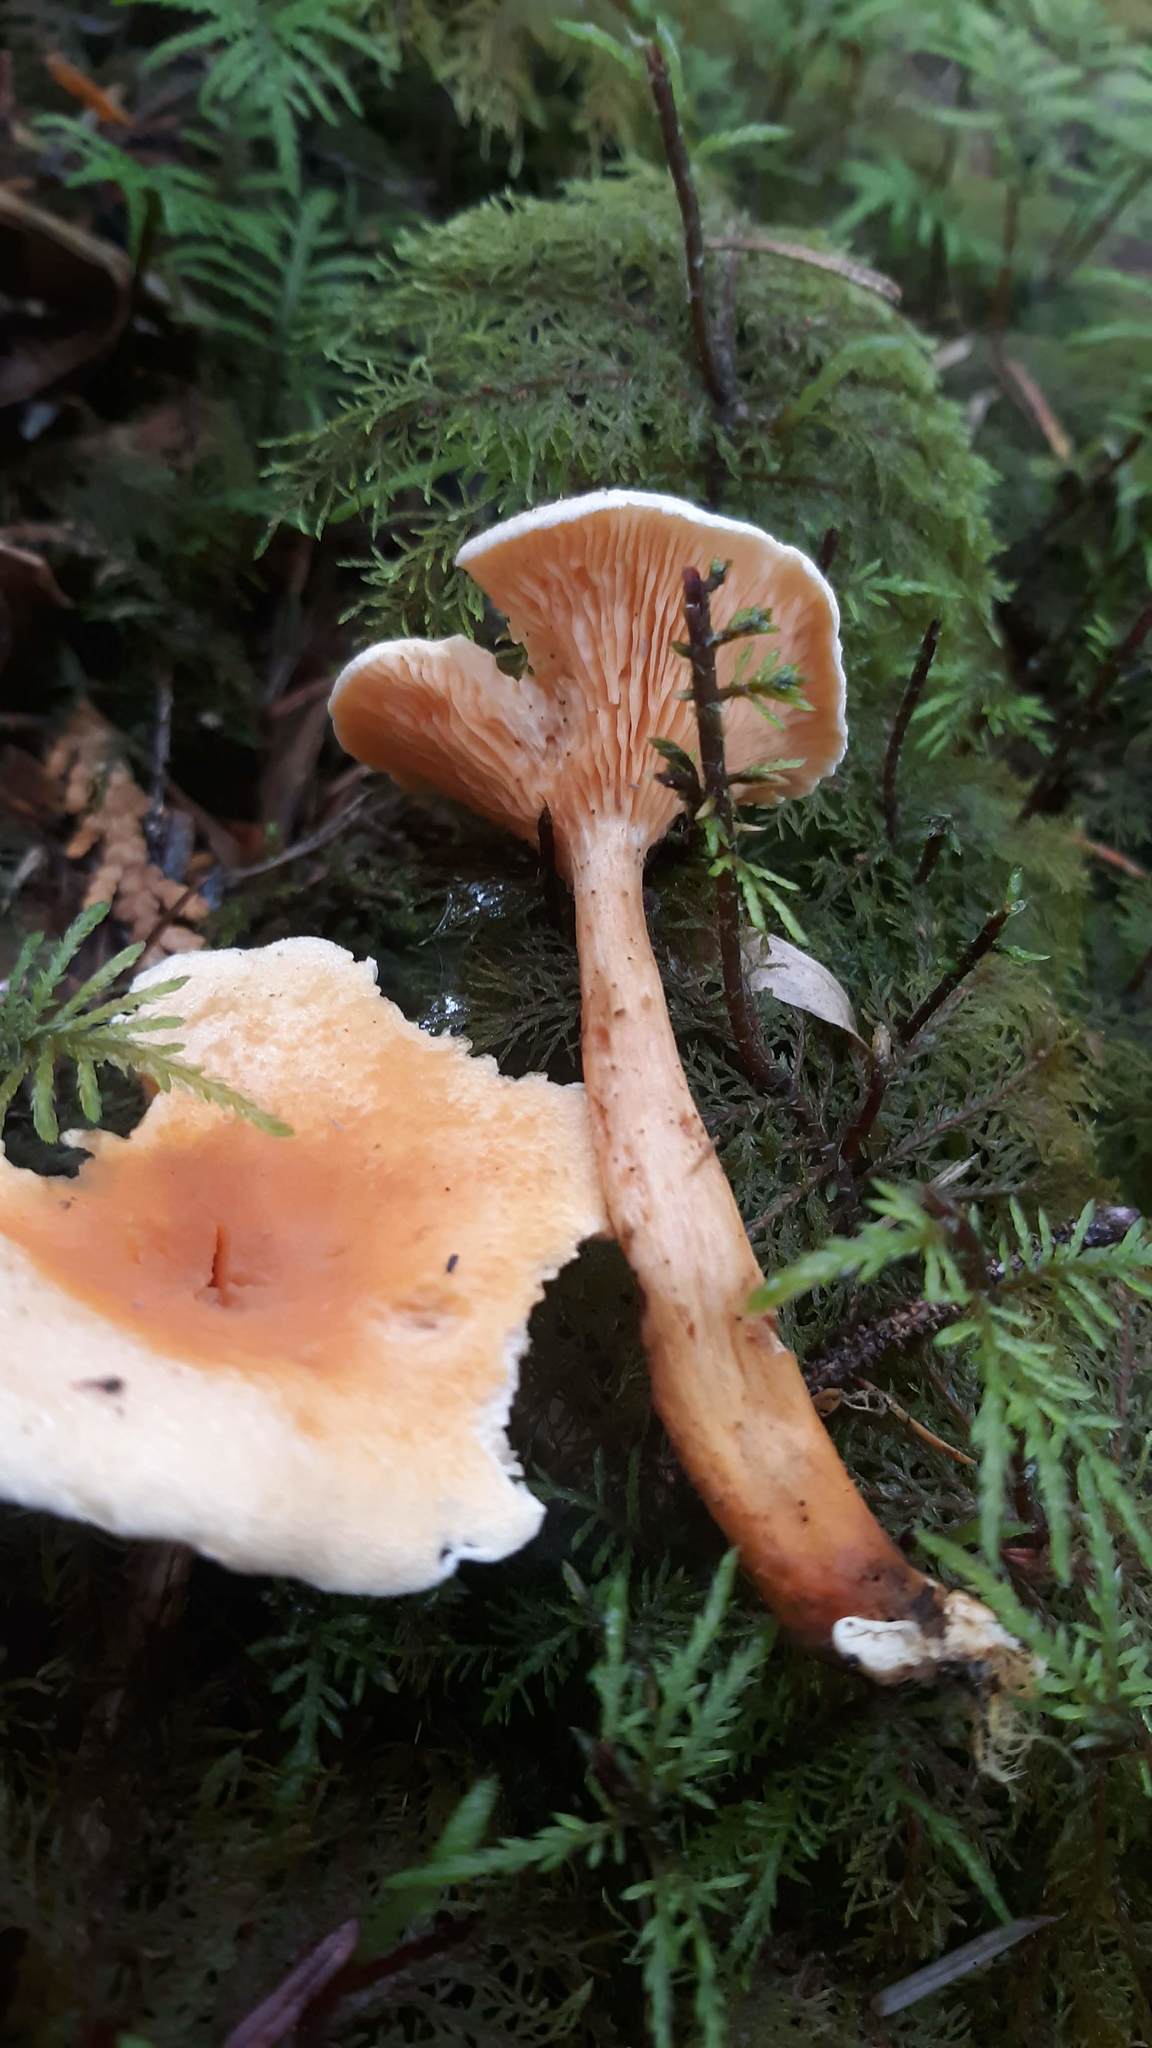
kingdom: Fungi
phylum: Basidiomycota
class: Agaricomycetes
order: Boletales
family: Hygrophoropsidaceae
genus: Hygrophoropsis
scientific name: Hygrophoropsis aurantiaca
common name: False chanterelle
